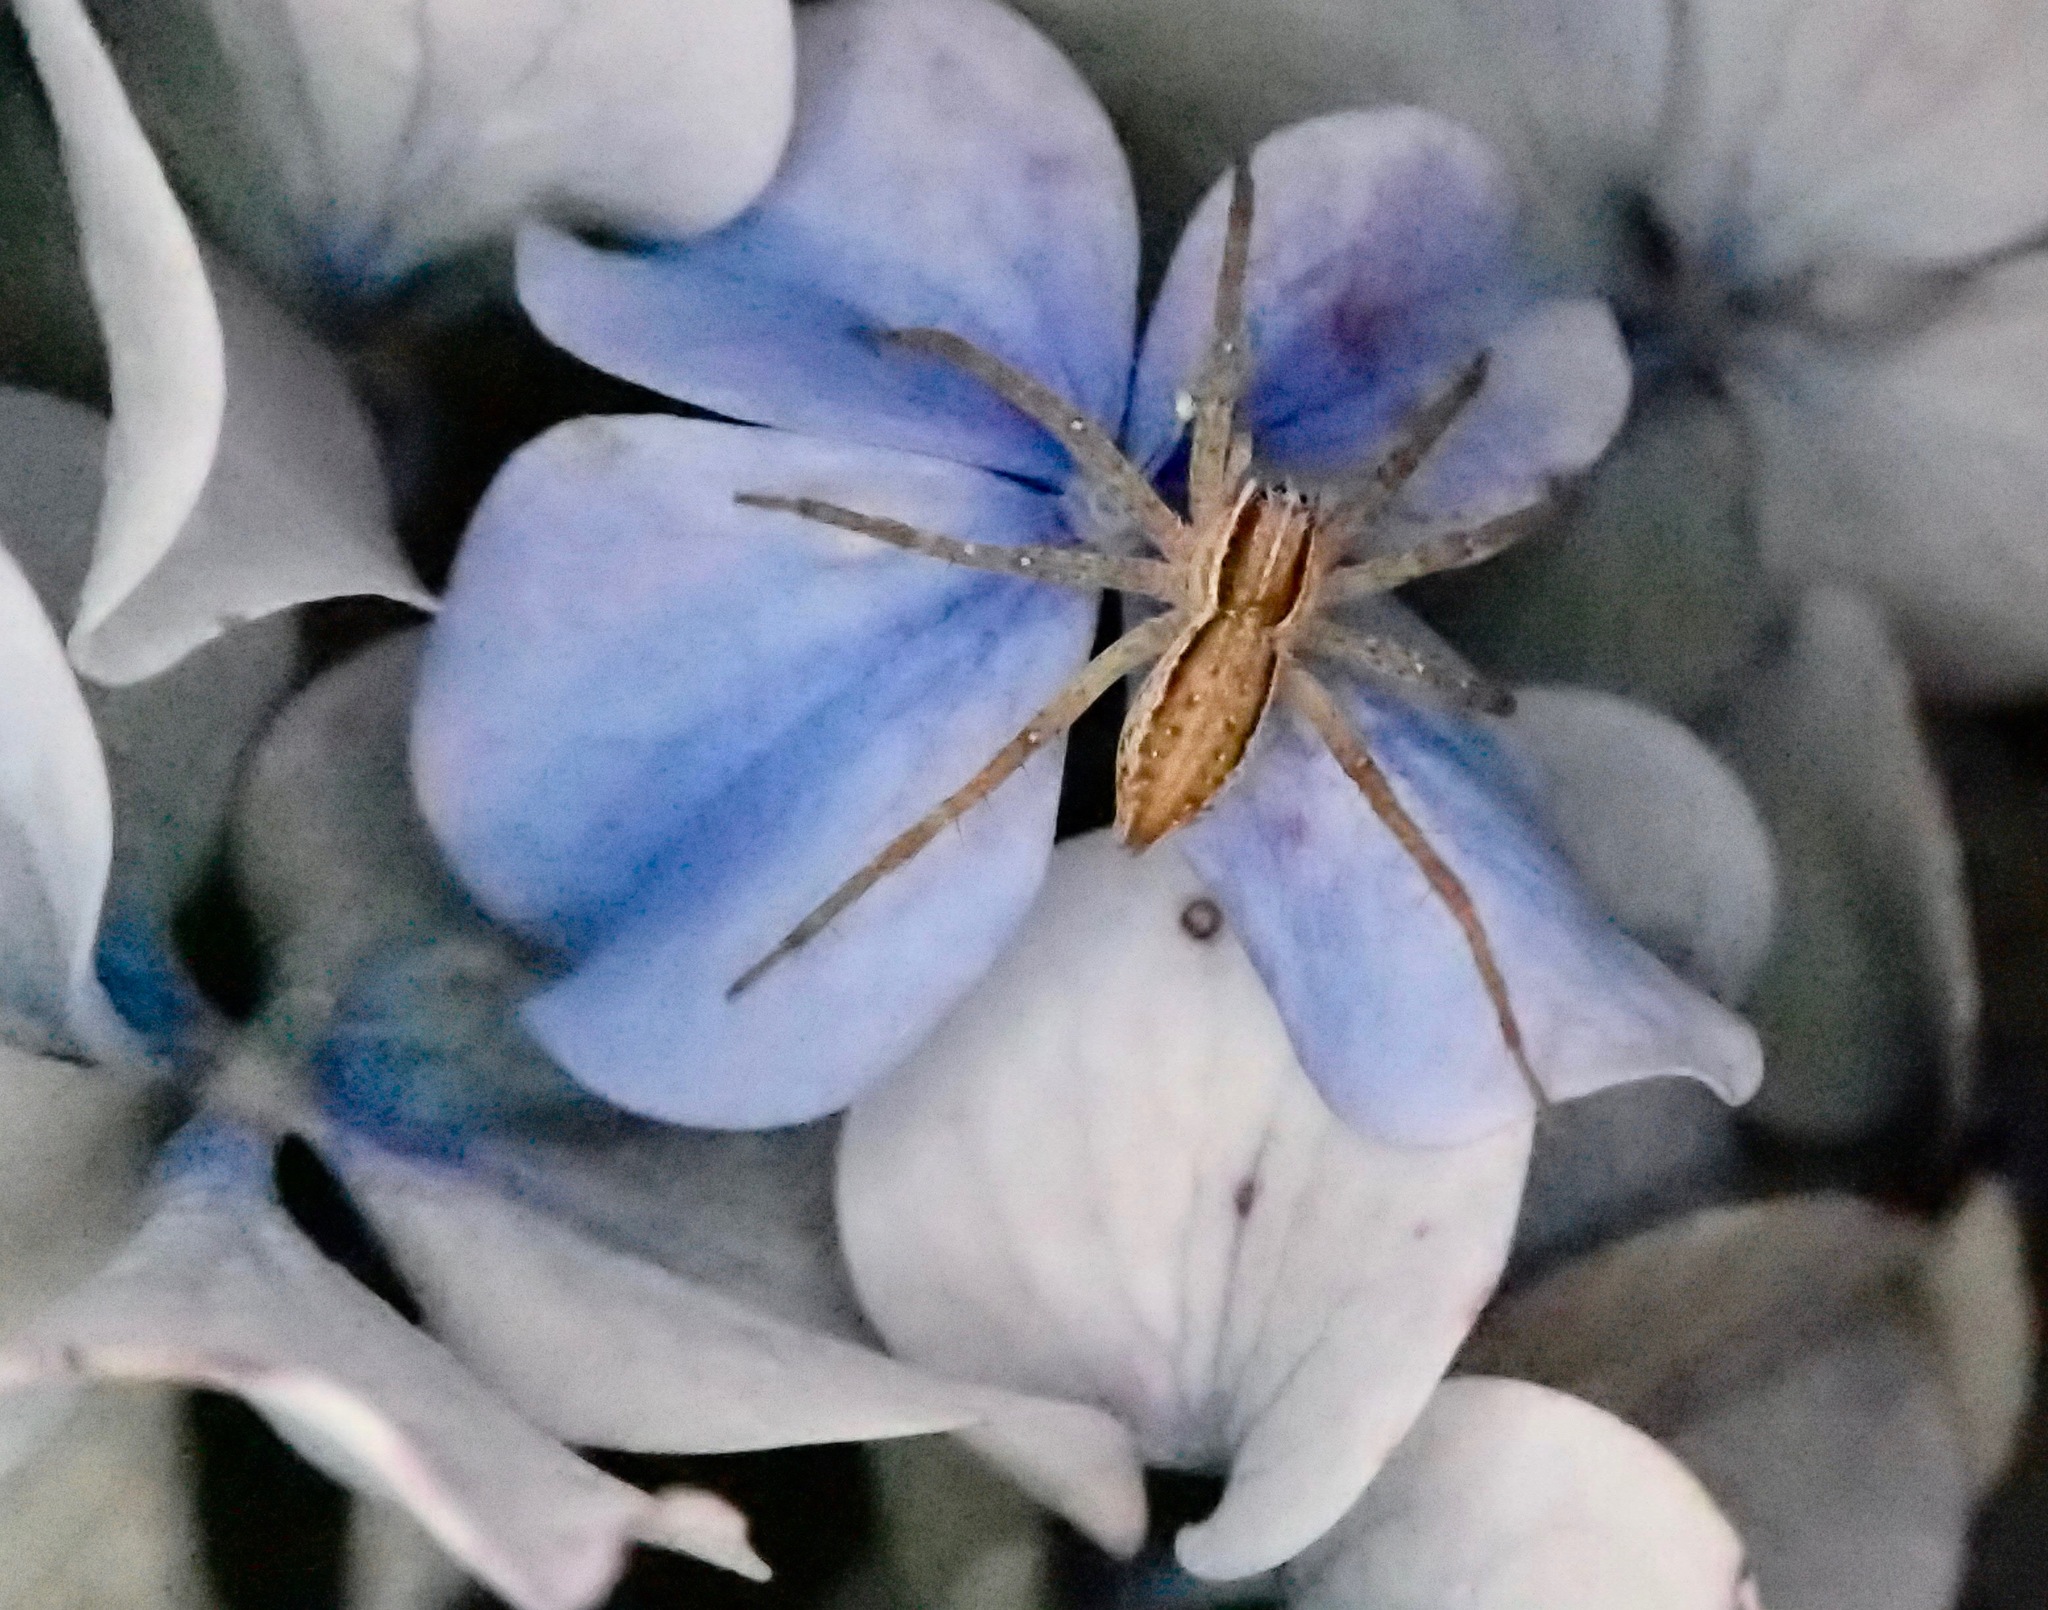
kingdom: Animalia
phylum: Arthropoda
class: Arachnida
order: Araneae
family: Pisauridae
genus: Dolomedes
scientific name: Dolomedes minor
